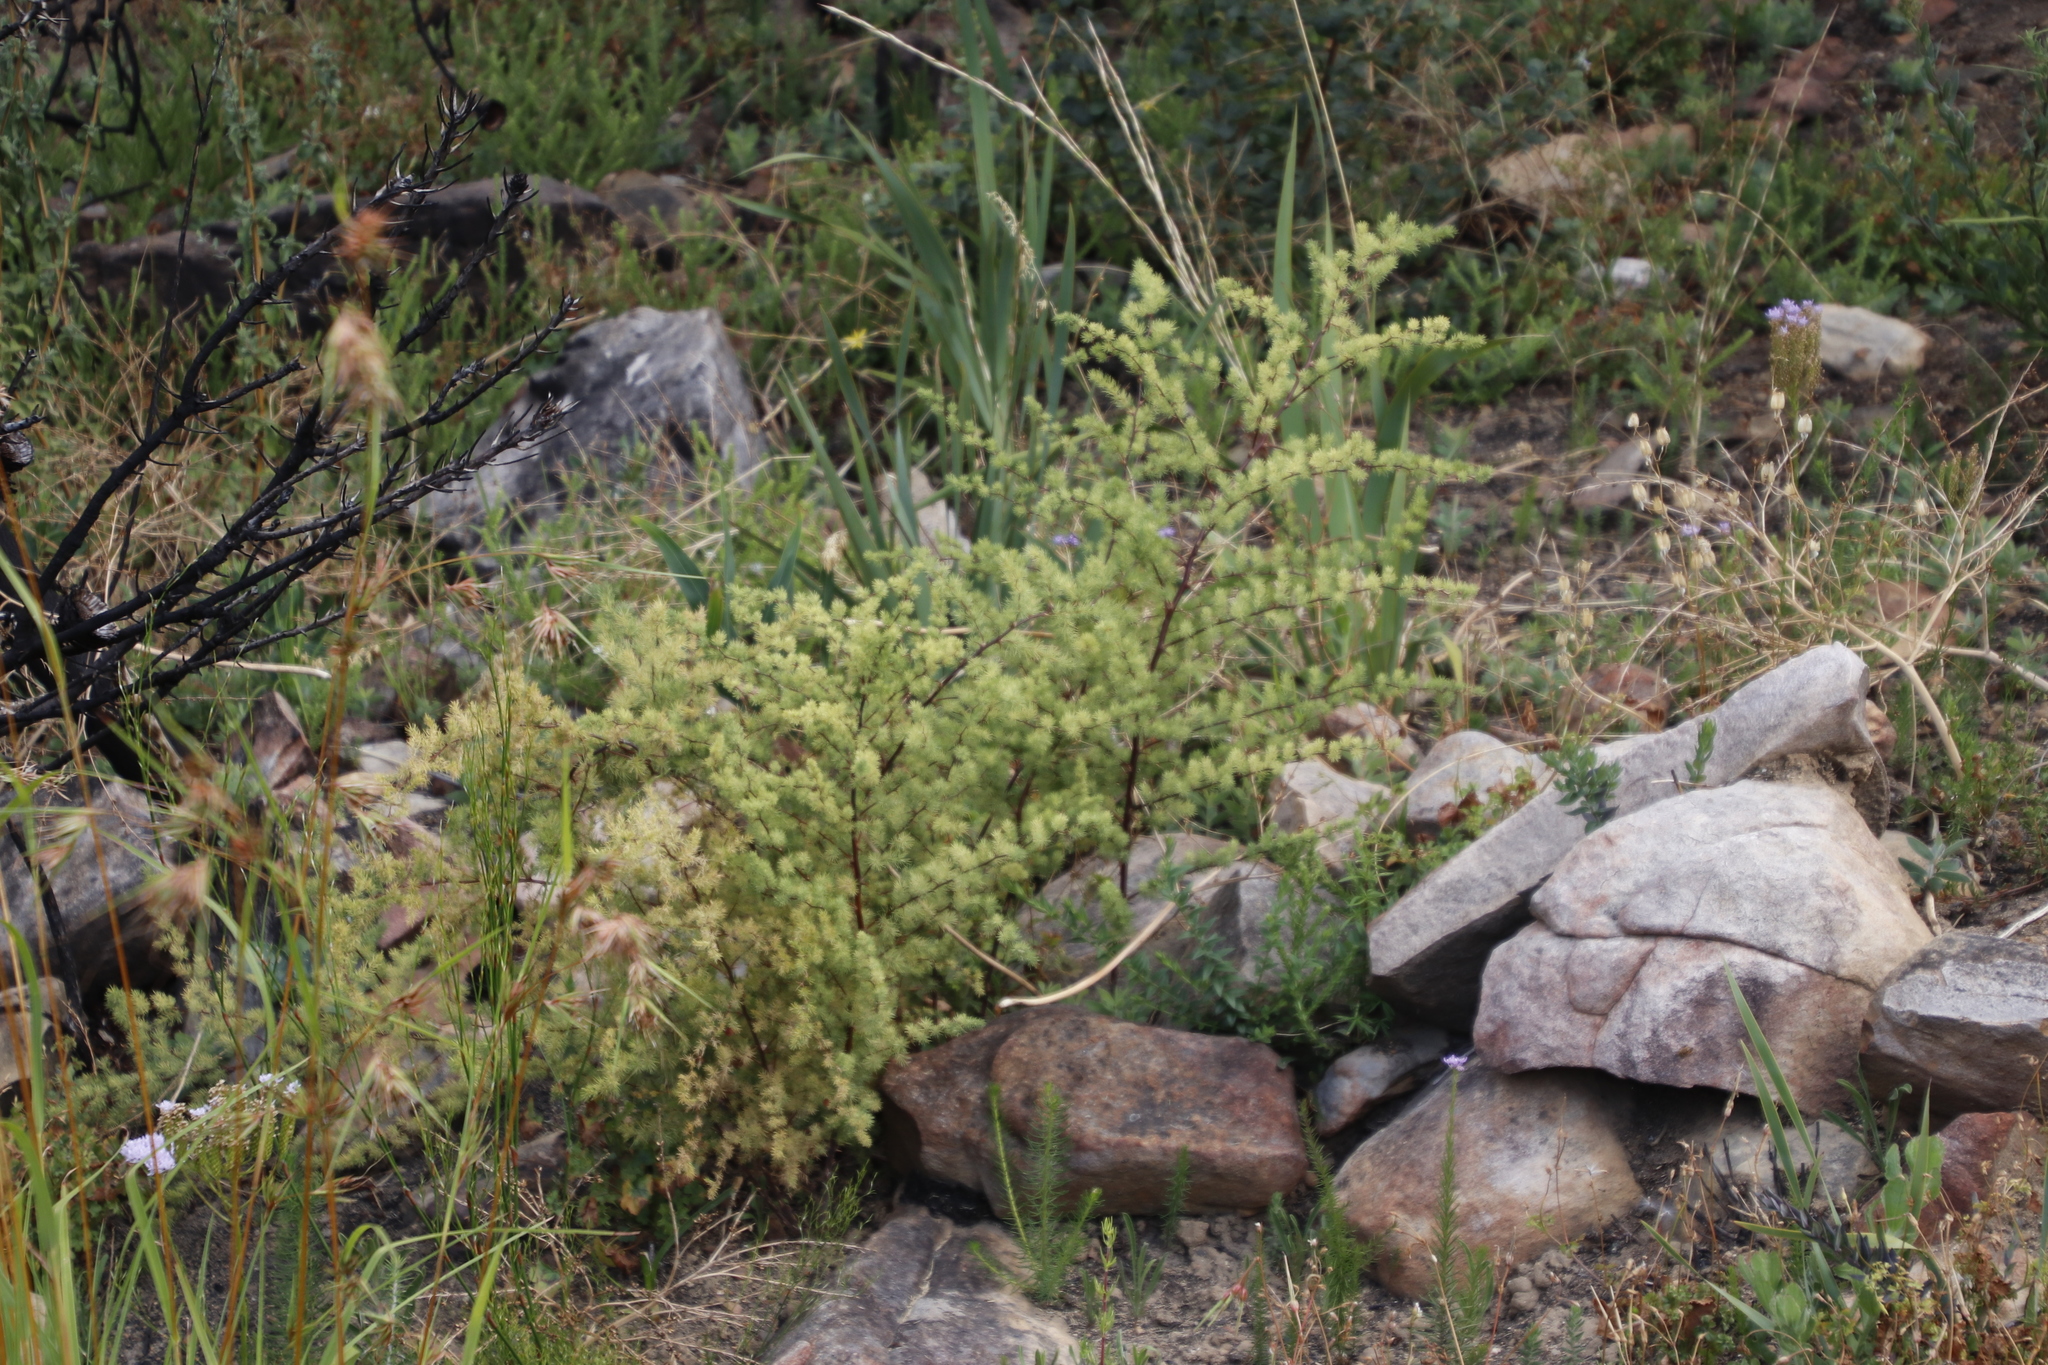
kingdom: Plantae
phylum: Tracheophyta
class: Liliopsida
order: Asparagales
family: Asparagaceae
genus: Asparagus
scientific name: Asparagus rubicundus
